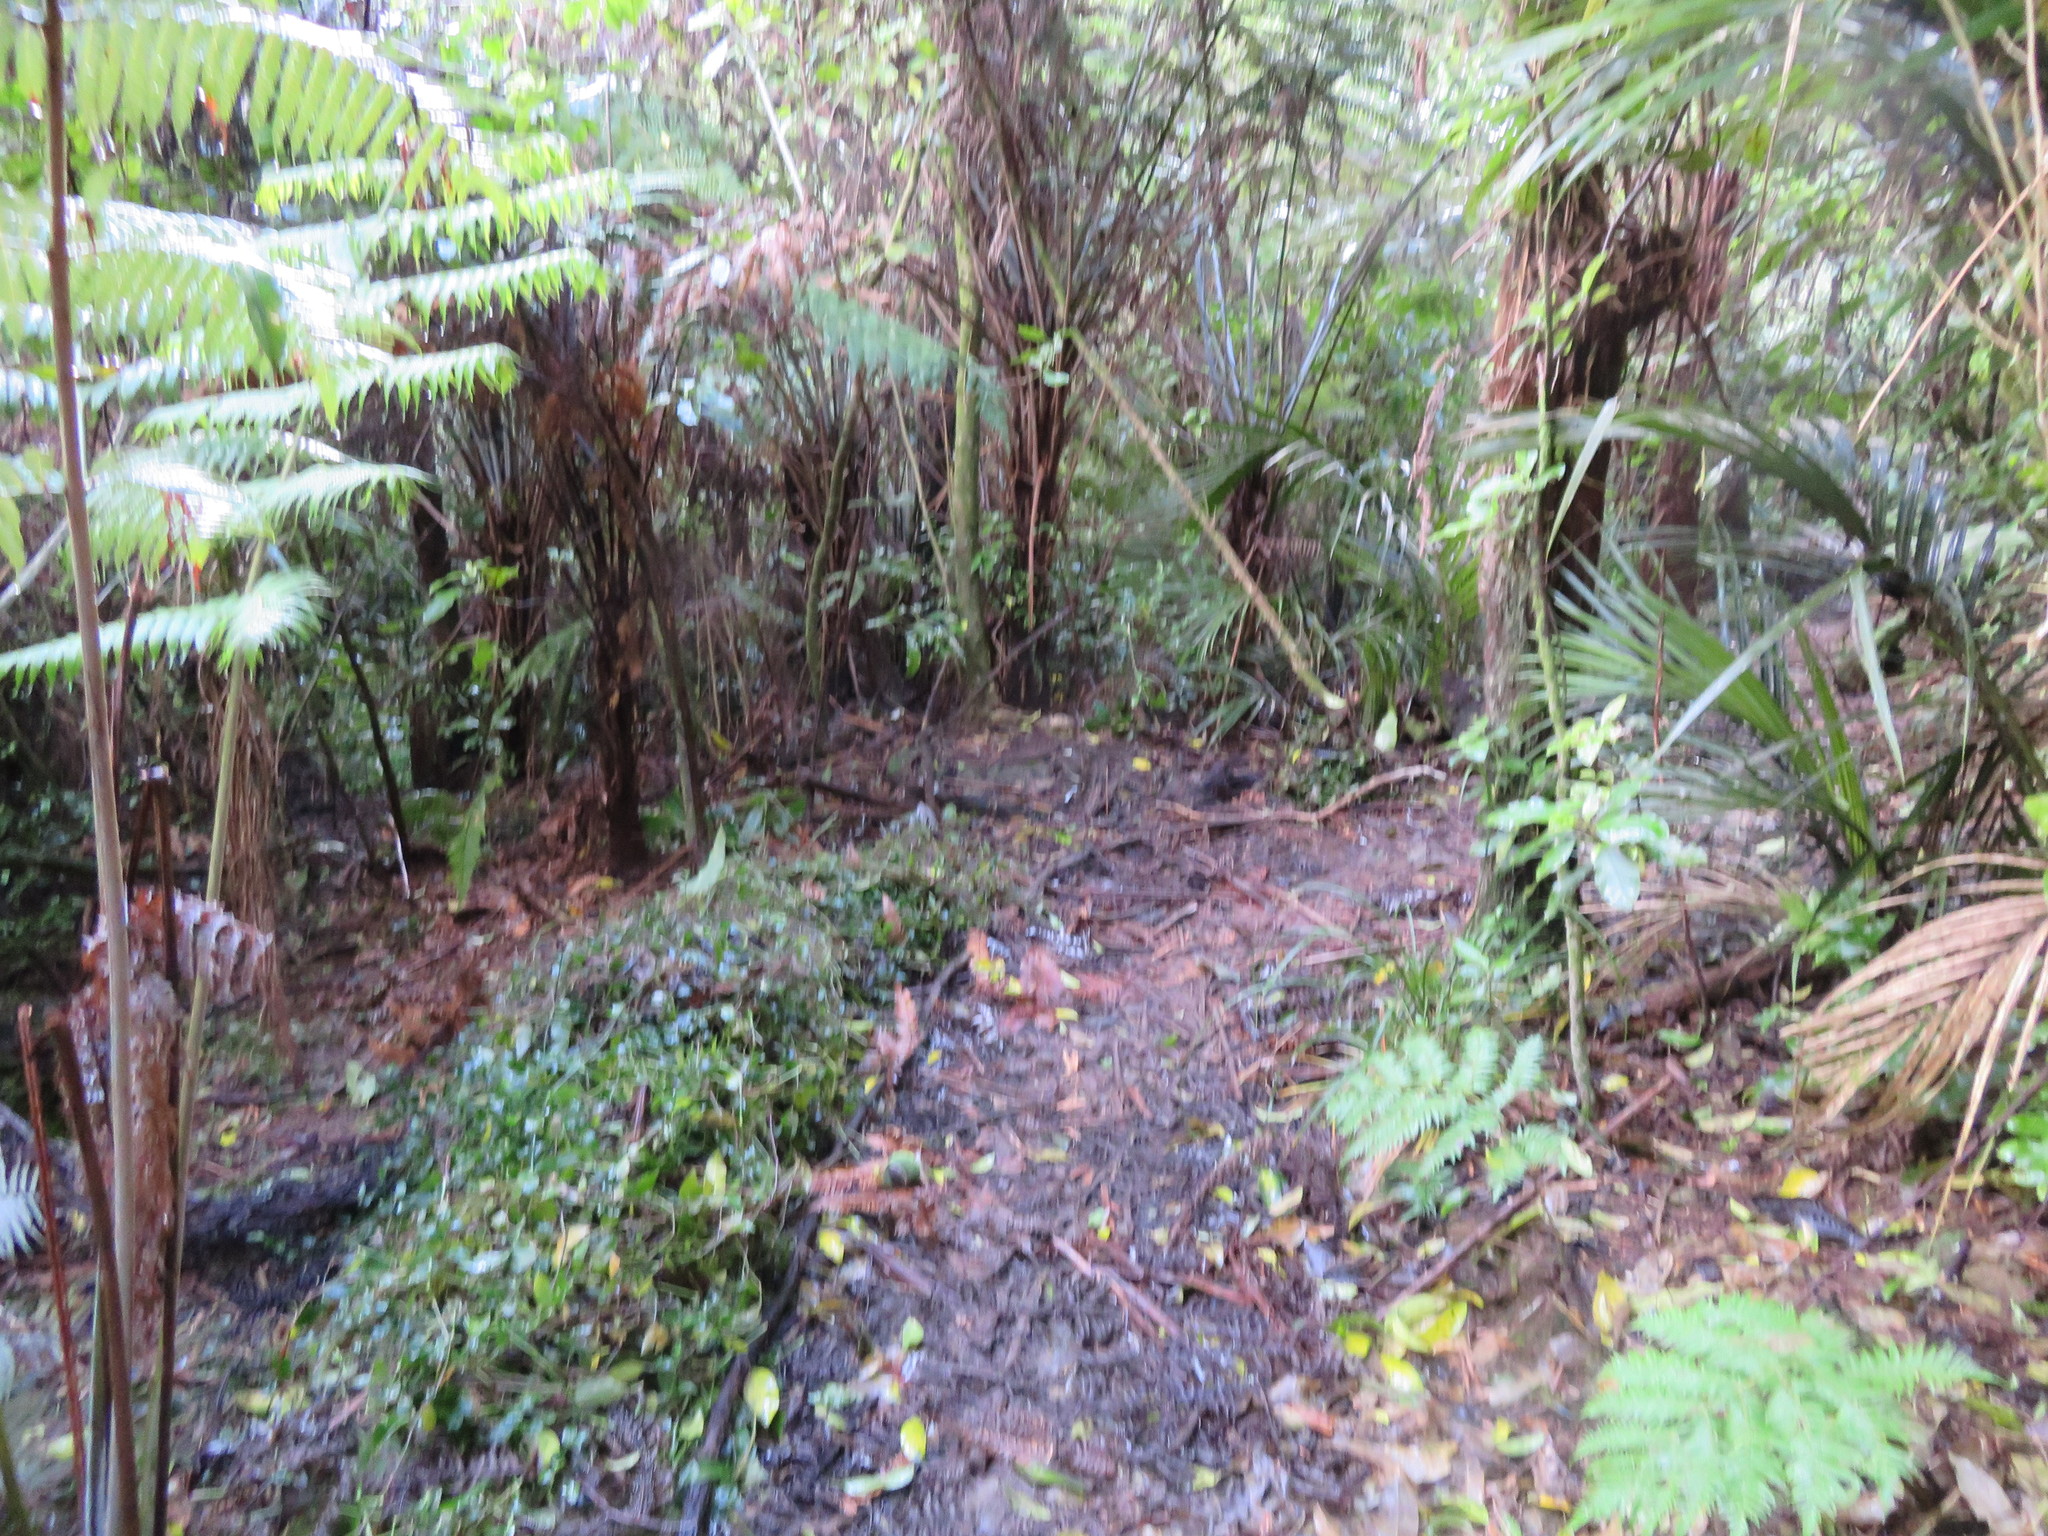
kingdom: Plantae
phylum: Tracheophyta
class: Liliopsida
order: Commelinales
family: Commelinaceae
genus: Tradescantia
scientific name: Tradescantia fluminensis
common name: Wandering-jew
